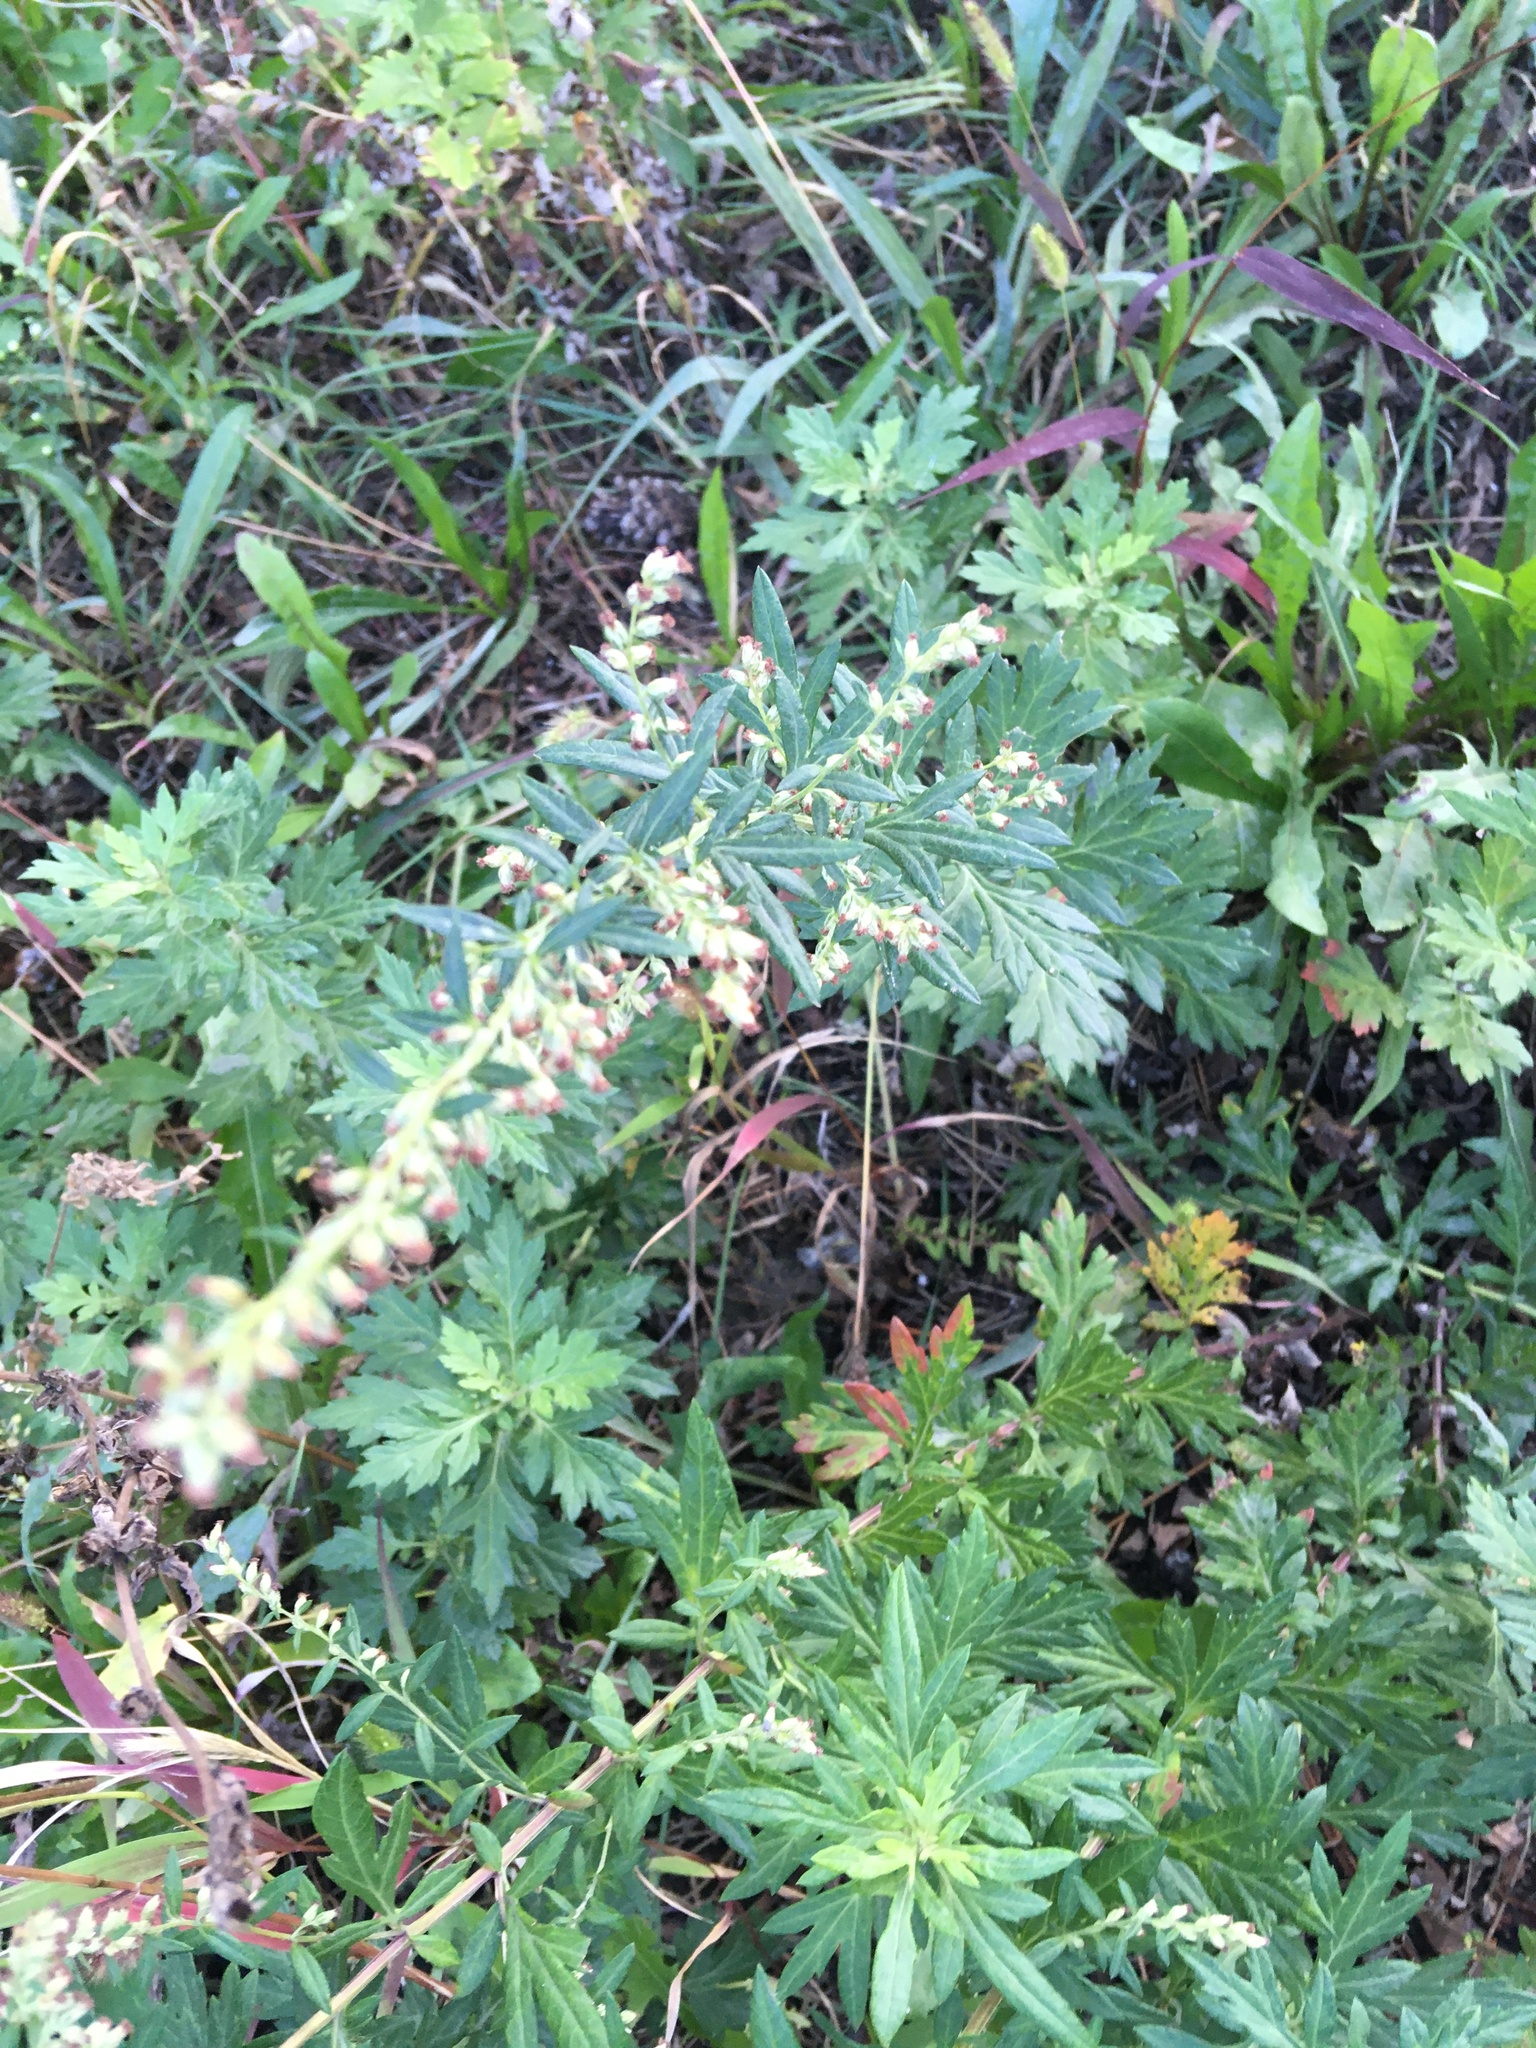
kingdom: Plantae
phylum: Tracheophyta
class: Magnoliopsida
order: Asterales
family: Asteraceae
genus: Artemisia
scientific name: Artemisia vulgaris
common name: Mugwort
